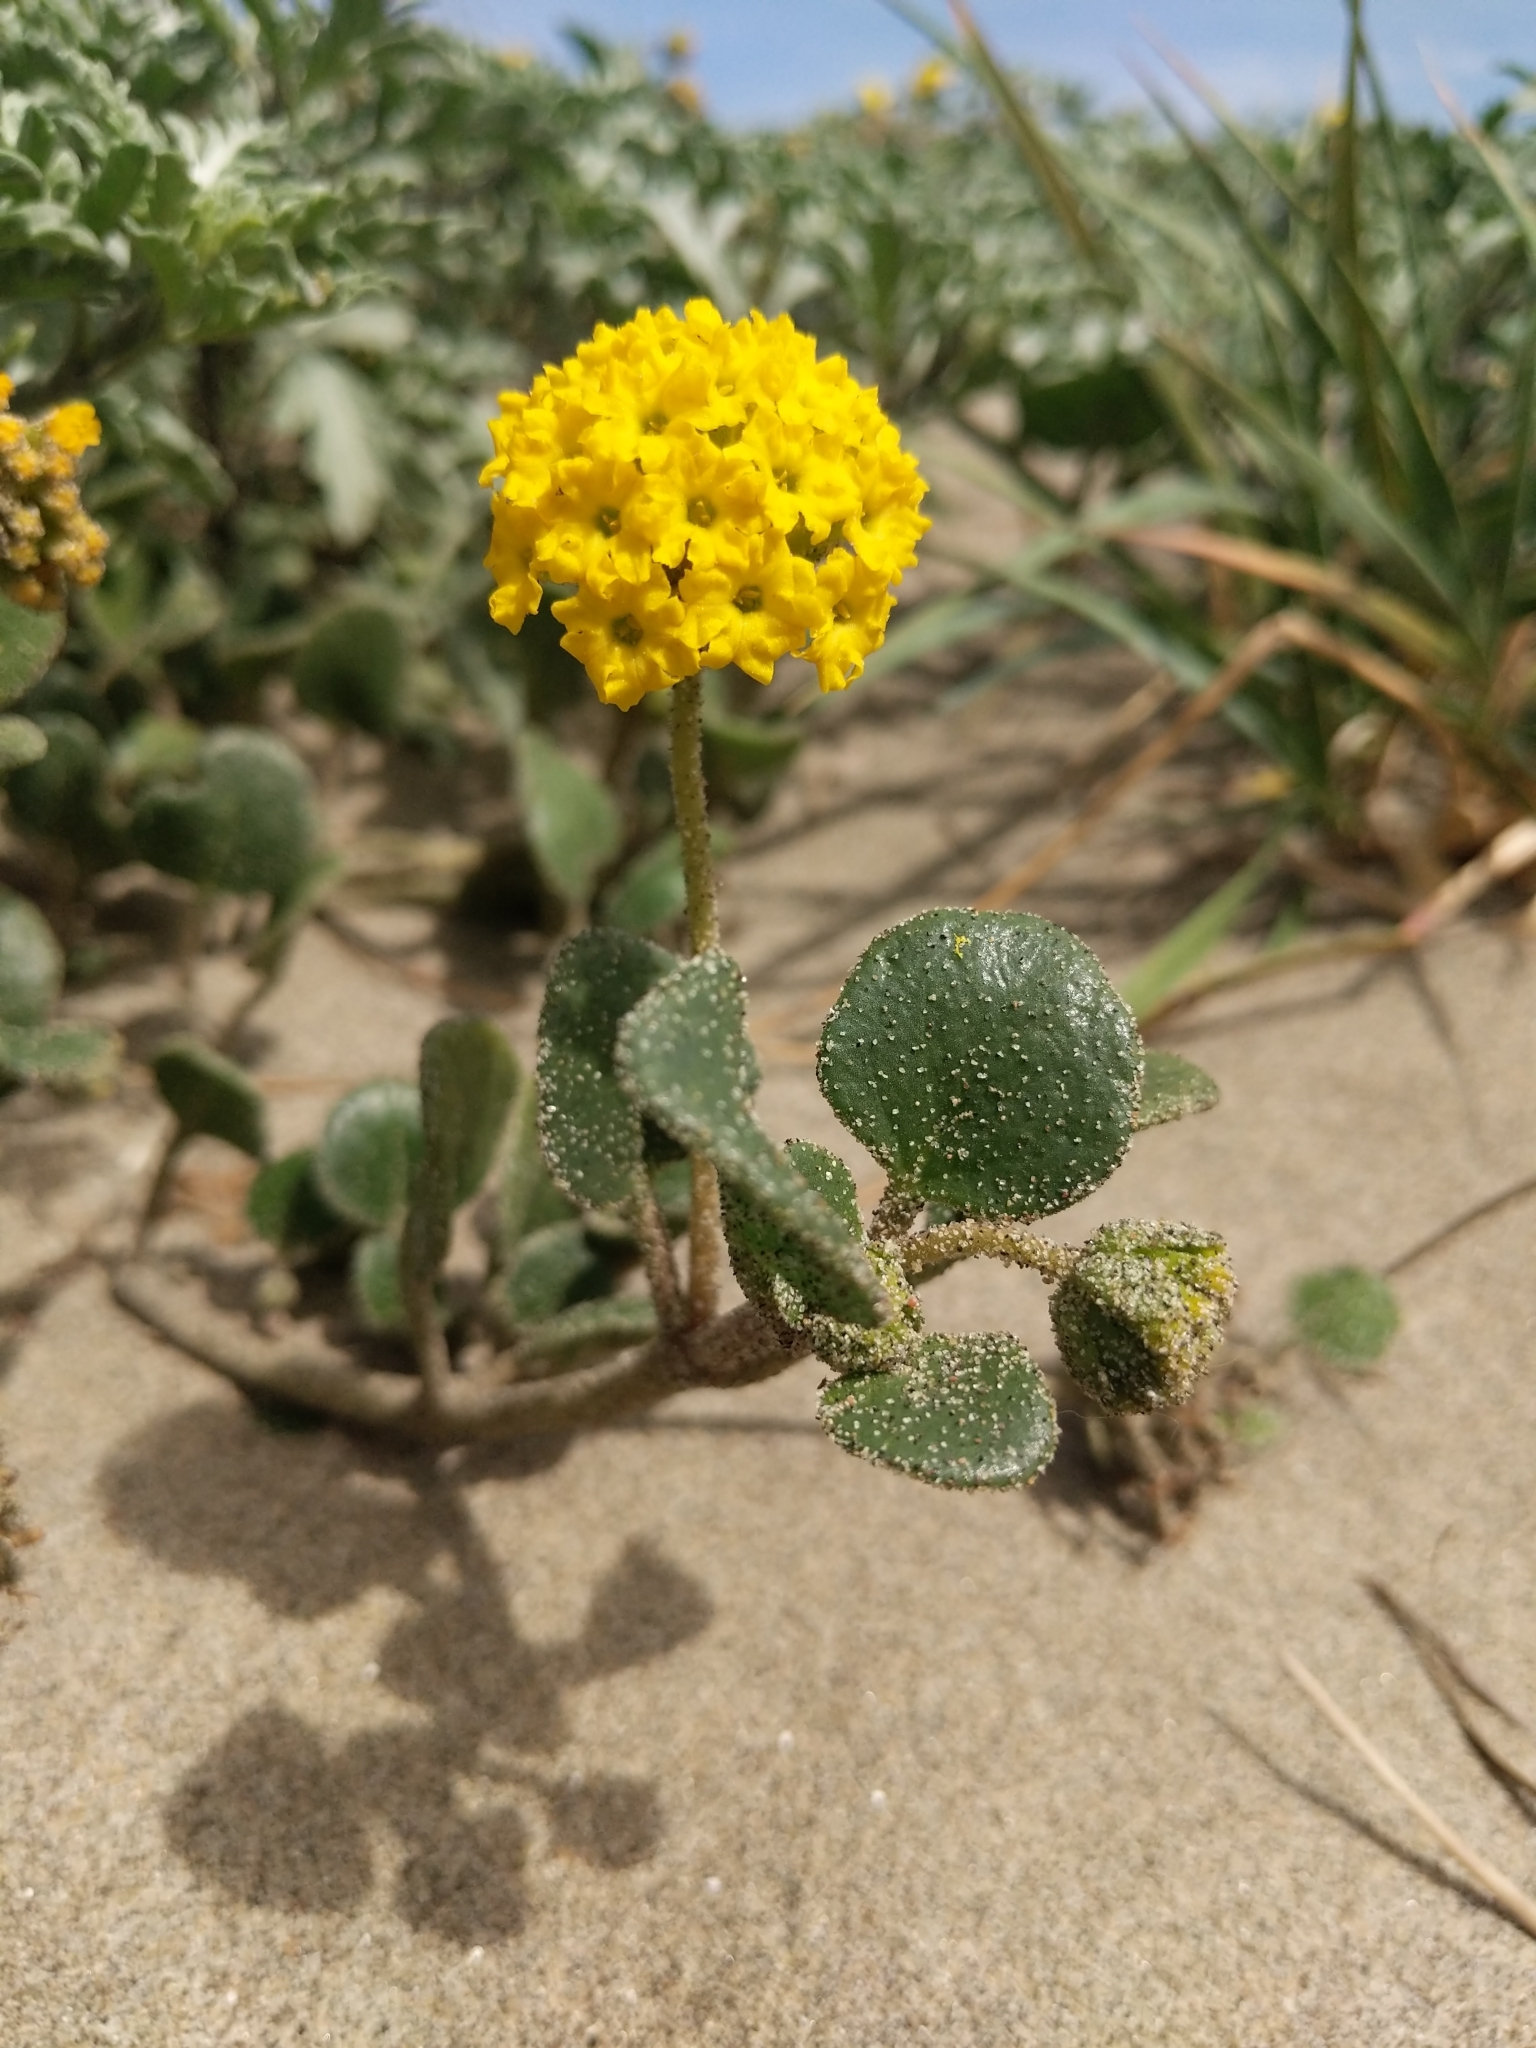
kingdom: Plantae
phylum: Tracheophyta
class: Magnoliopsida
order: Caryophyllales
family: Nyctaginaceae
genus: Abronia
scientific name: Abronia latifolia
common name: Yellow sand-verbena
